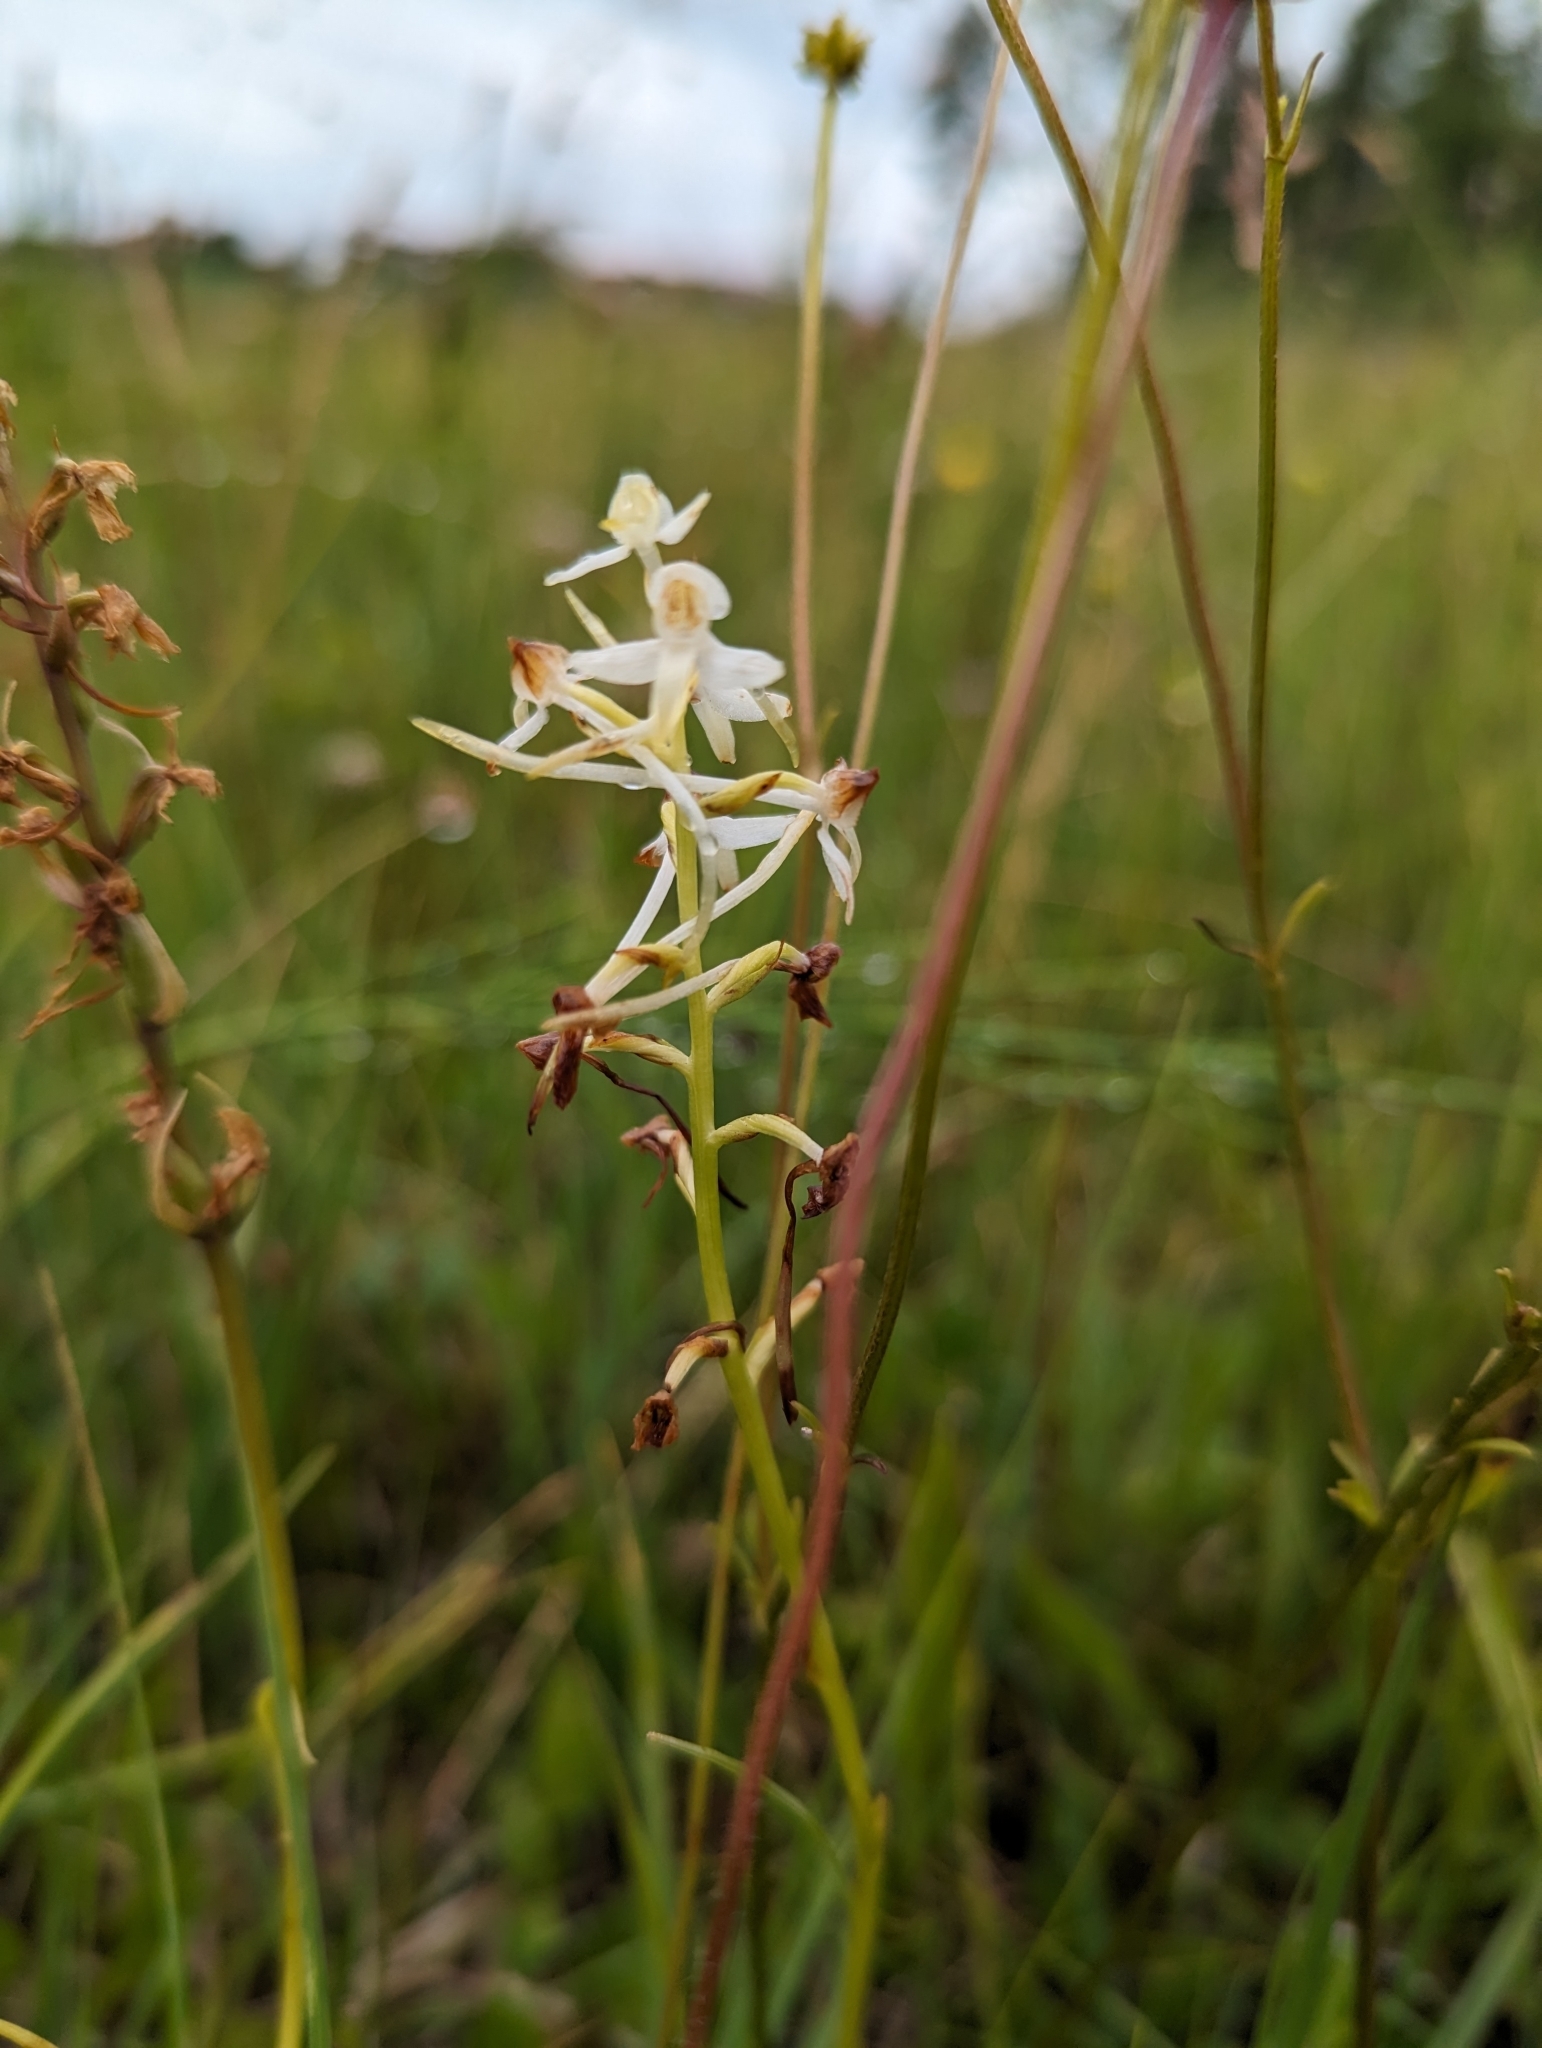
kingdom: Plantae
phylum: Tracheophyta
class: Liliopsida
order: Asparagales
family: Orchidaceae
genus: Platanthera
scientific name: Platanthera bifolia
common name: Lesser butterfly-orchid
